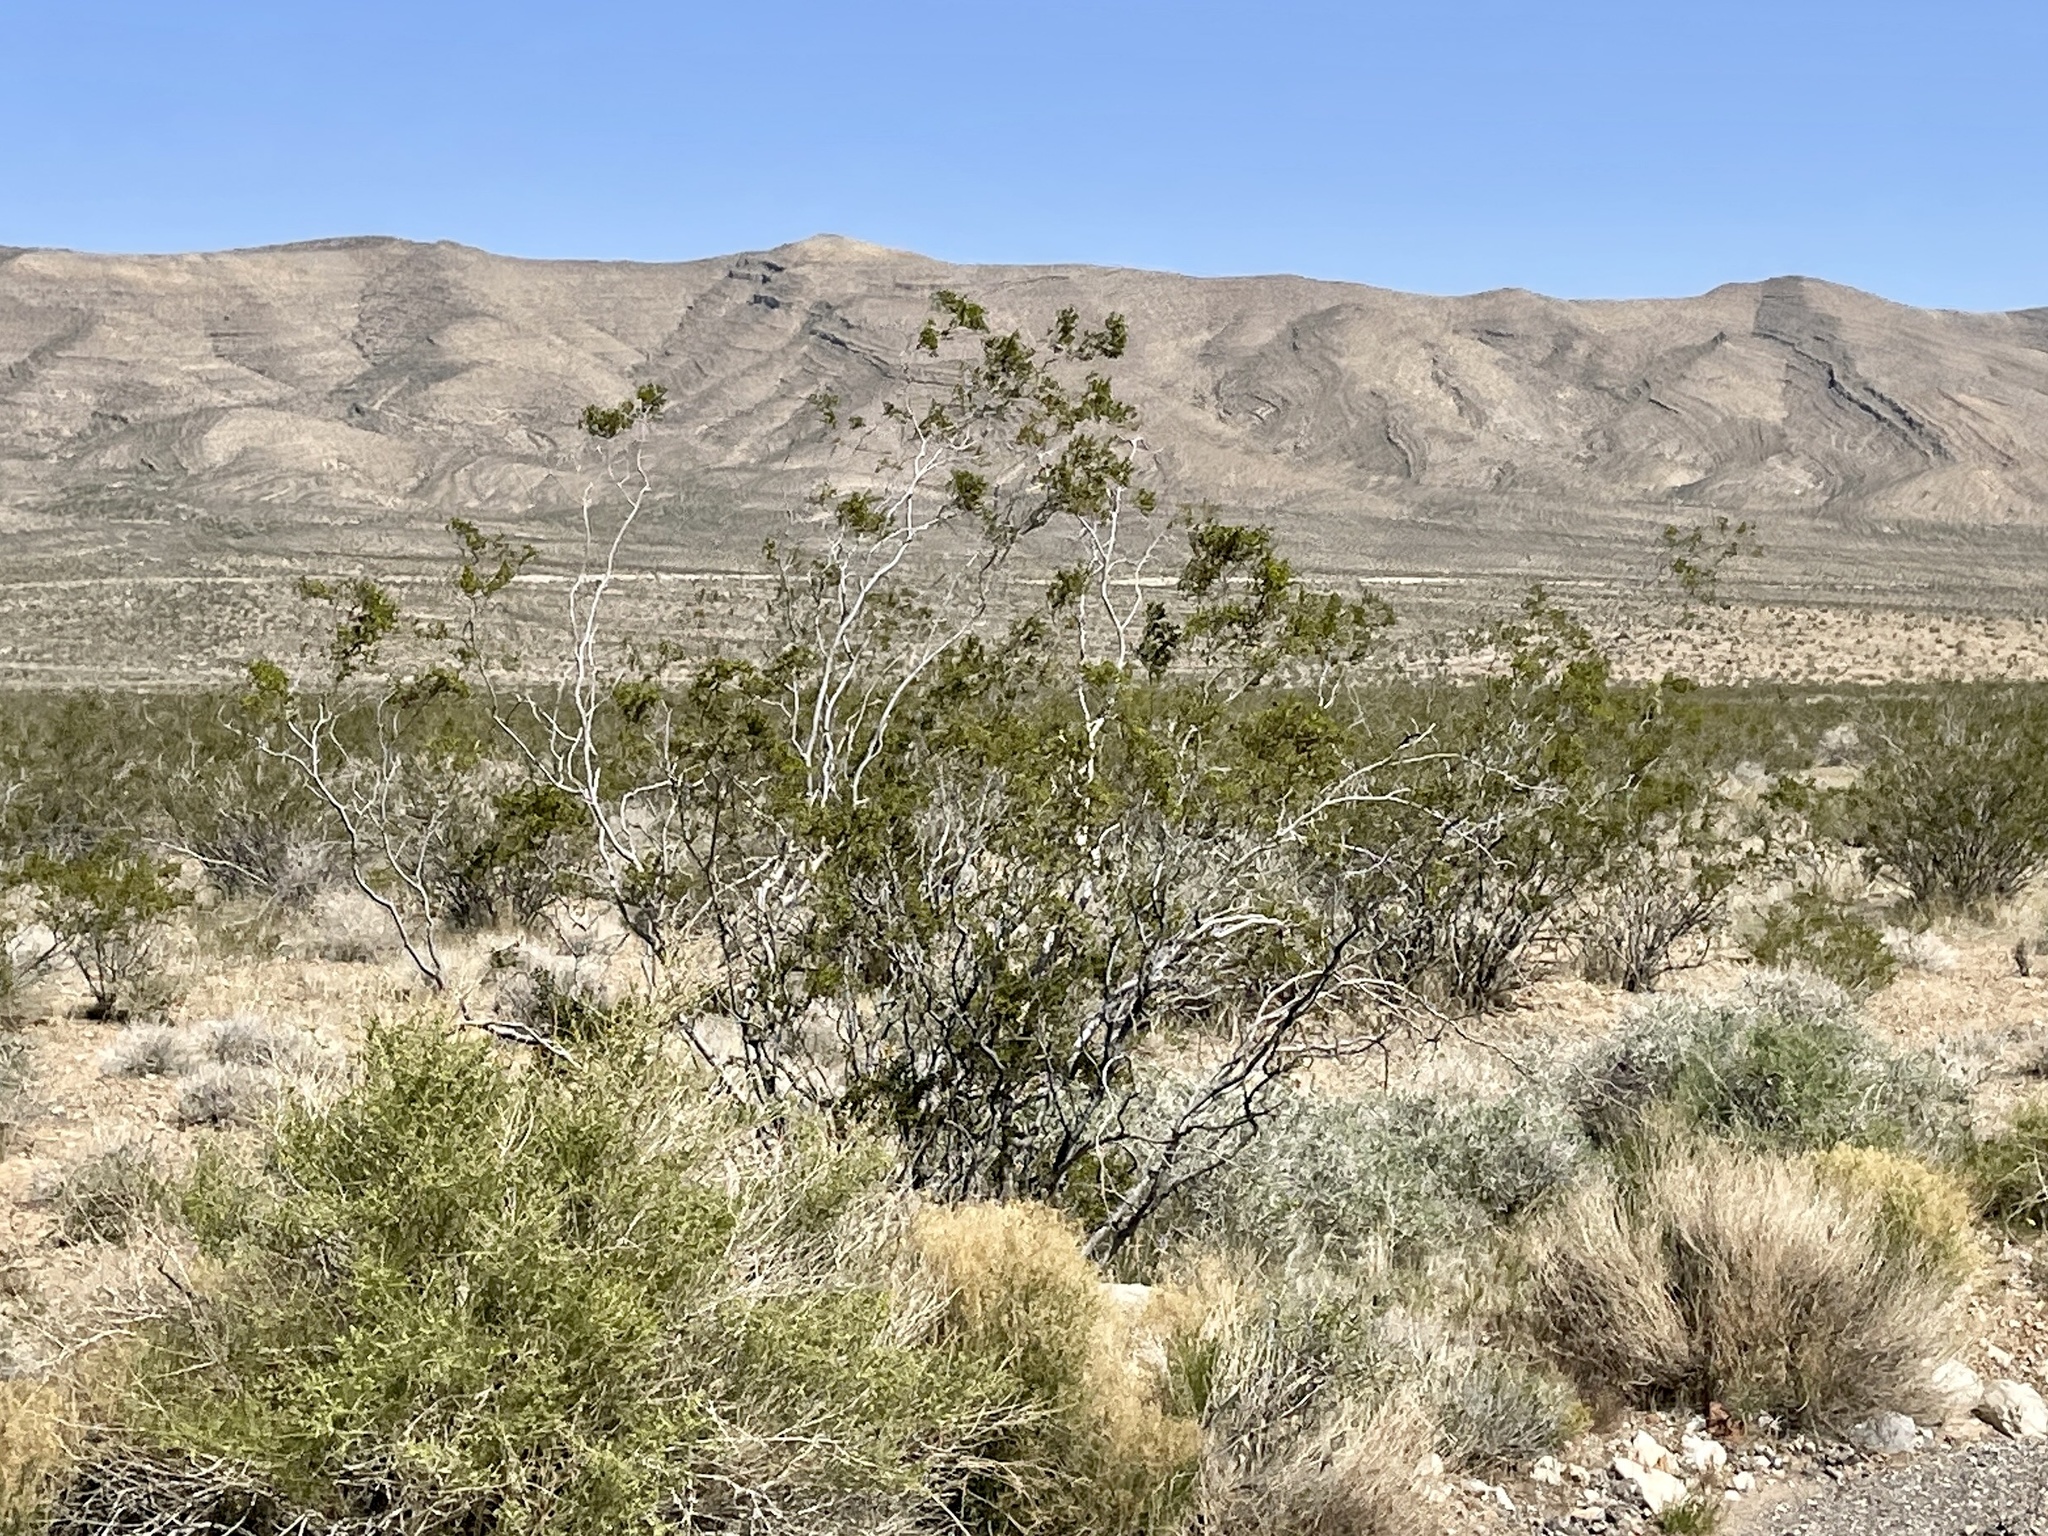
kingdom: Plantae
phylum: Tracheophyta
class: Magnoliopsida
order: Zygophyllales
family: Zygophyllaceae
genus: Larrea
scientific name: Larrea tridentata
